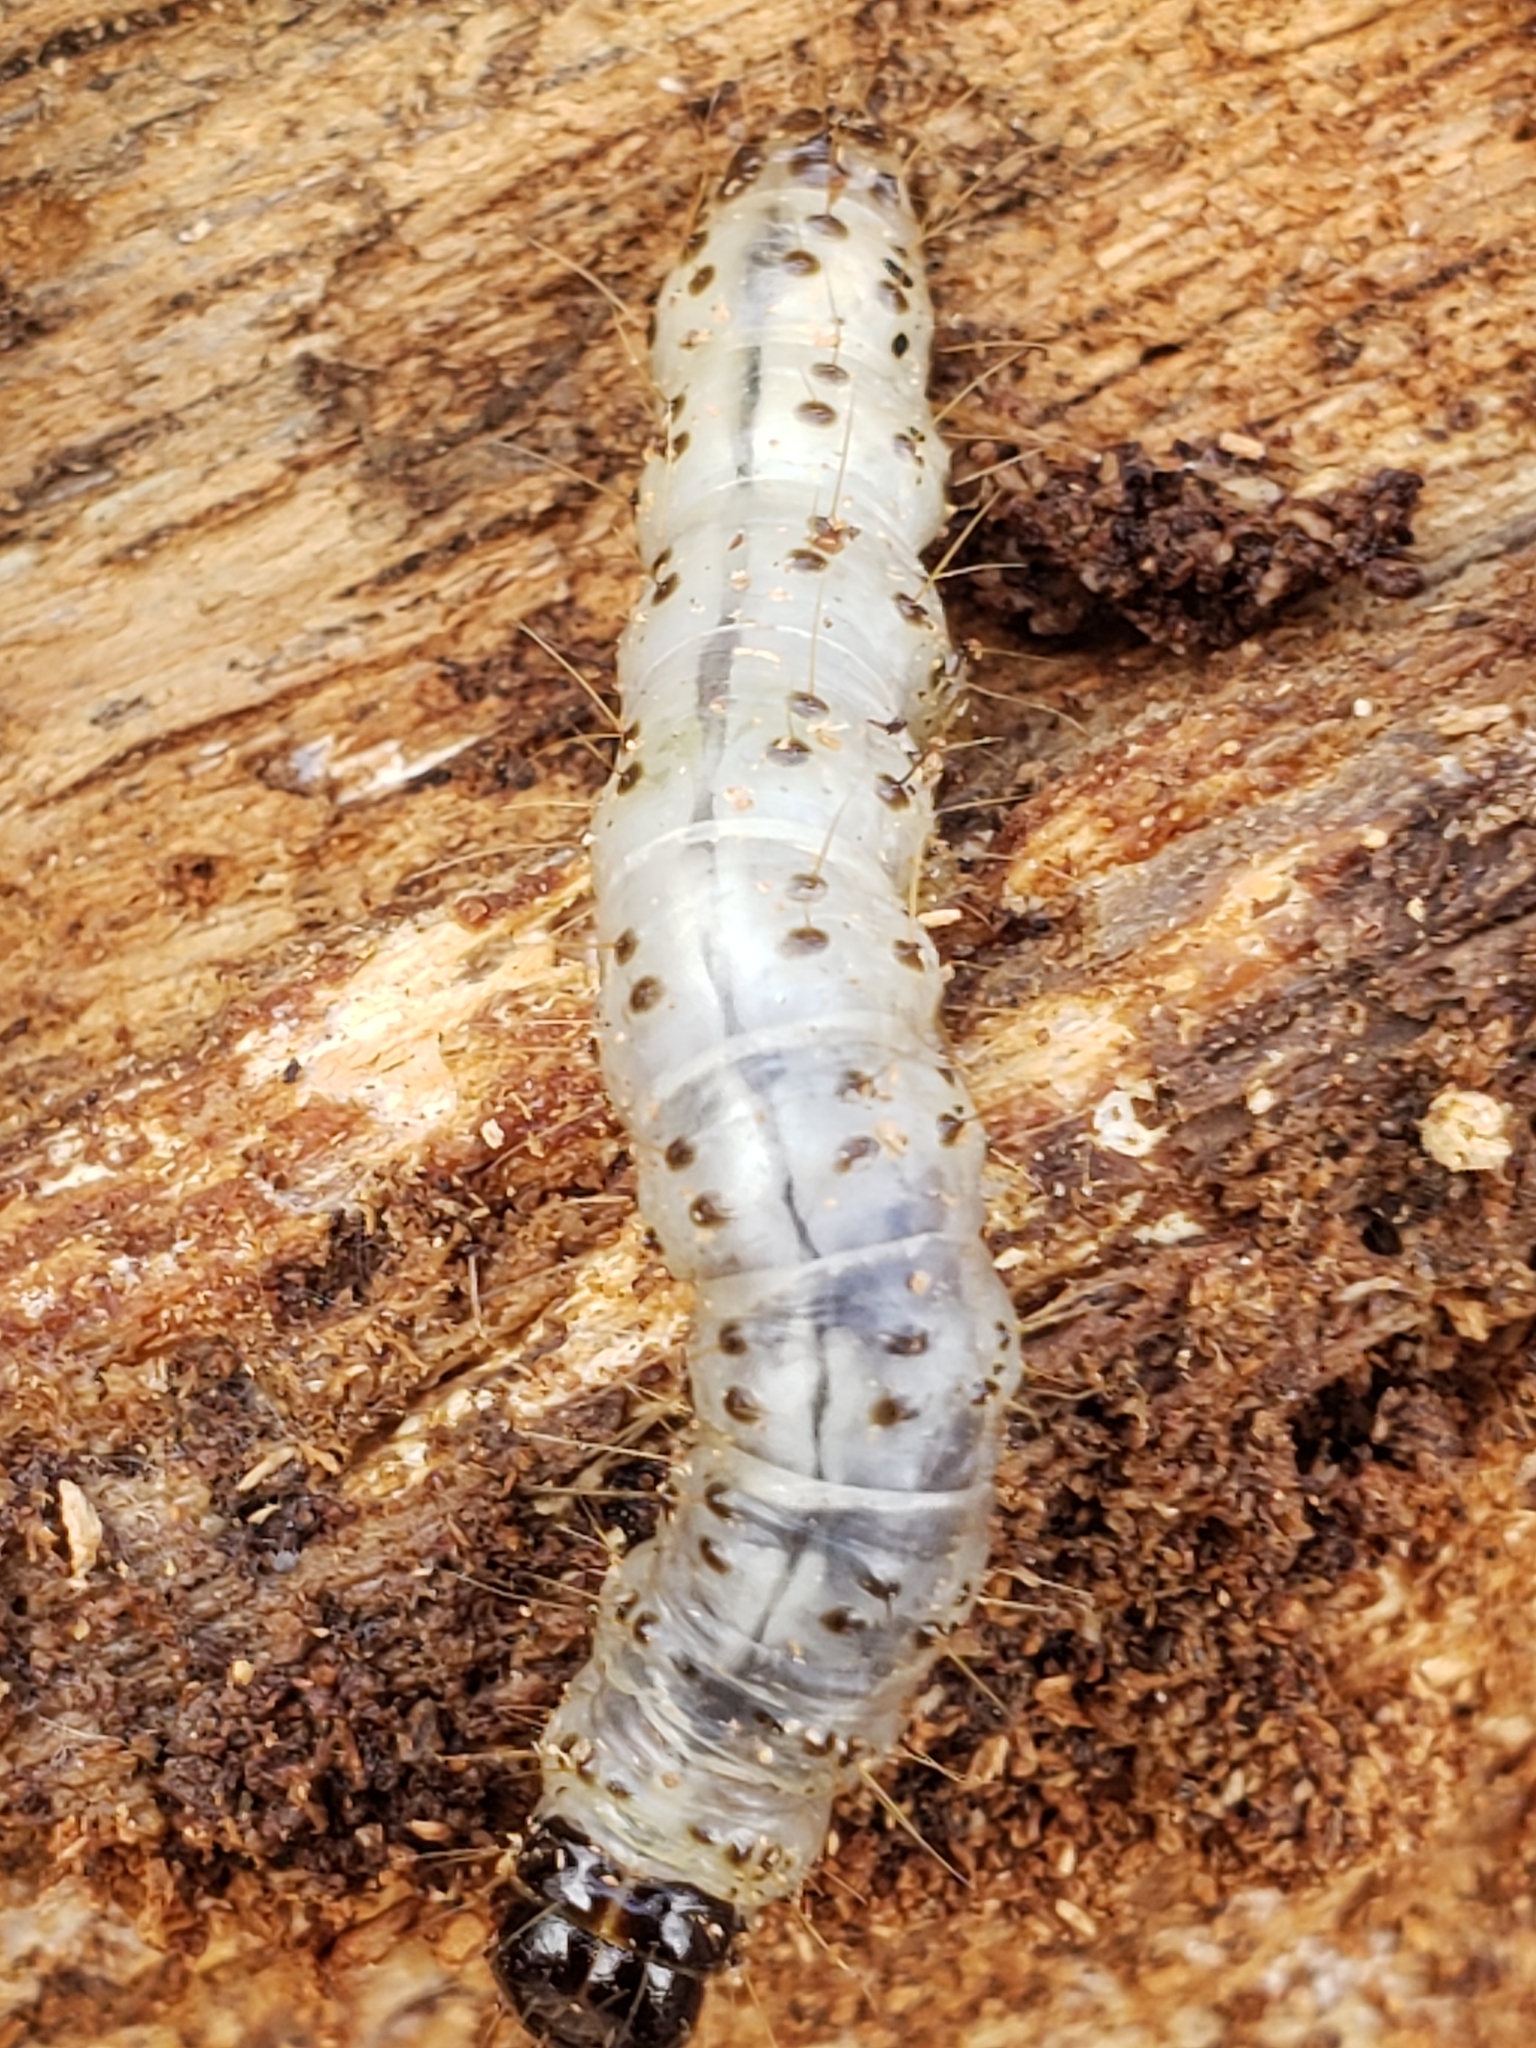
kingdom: Animalia
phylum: Arthropoda
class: Insecta
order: Lepidoptera
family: Erebidae
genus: Scolecocampa
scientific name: Scolecocampa liburna
